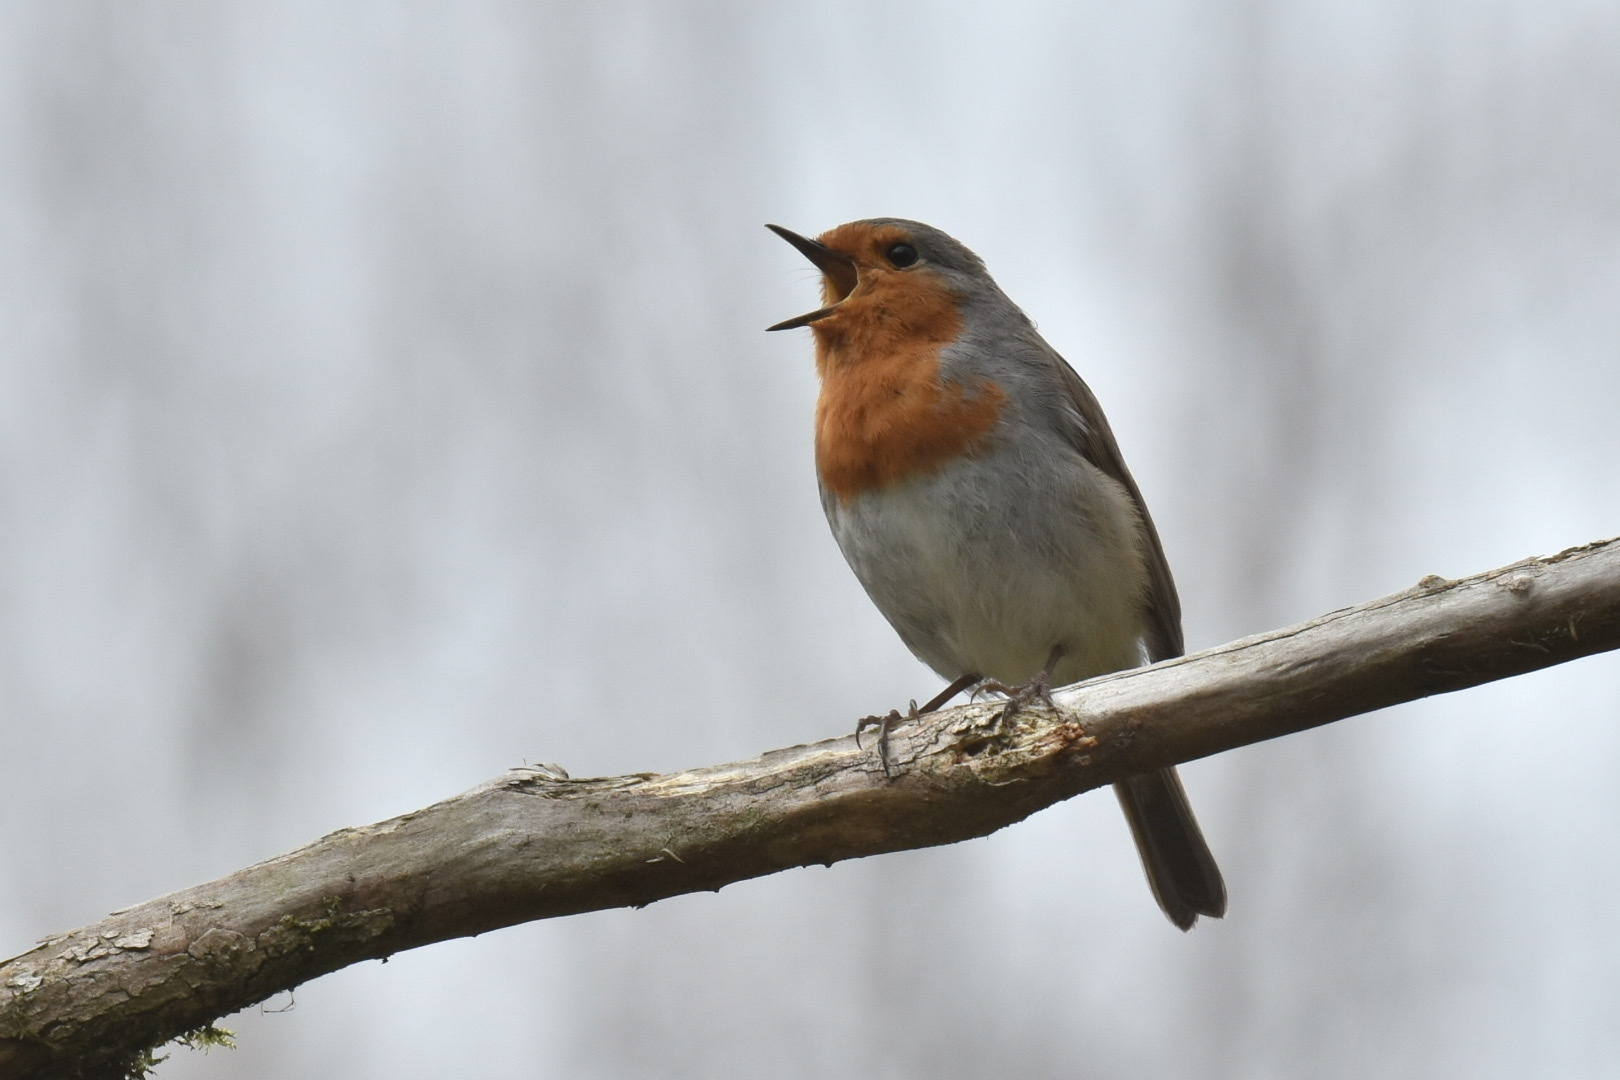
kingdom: Animalia
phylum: Chordata
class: Aves
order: Passeriformes
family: Muscicapidae
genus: Erithacus
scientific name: Erithacus rubecula
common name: European robin
